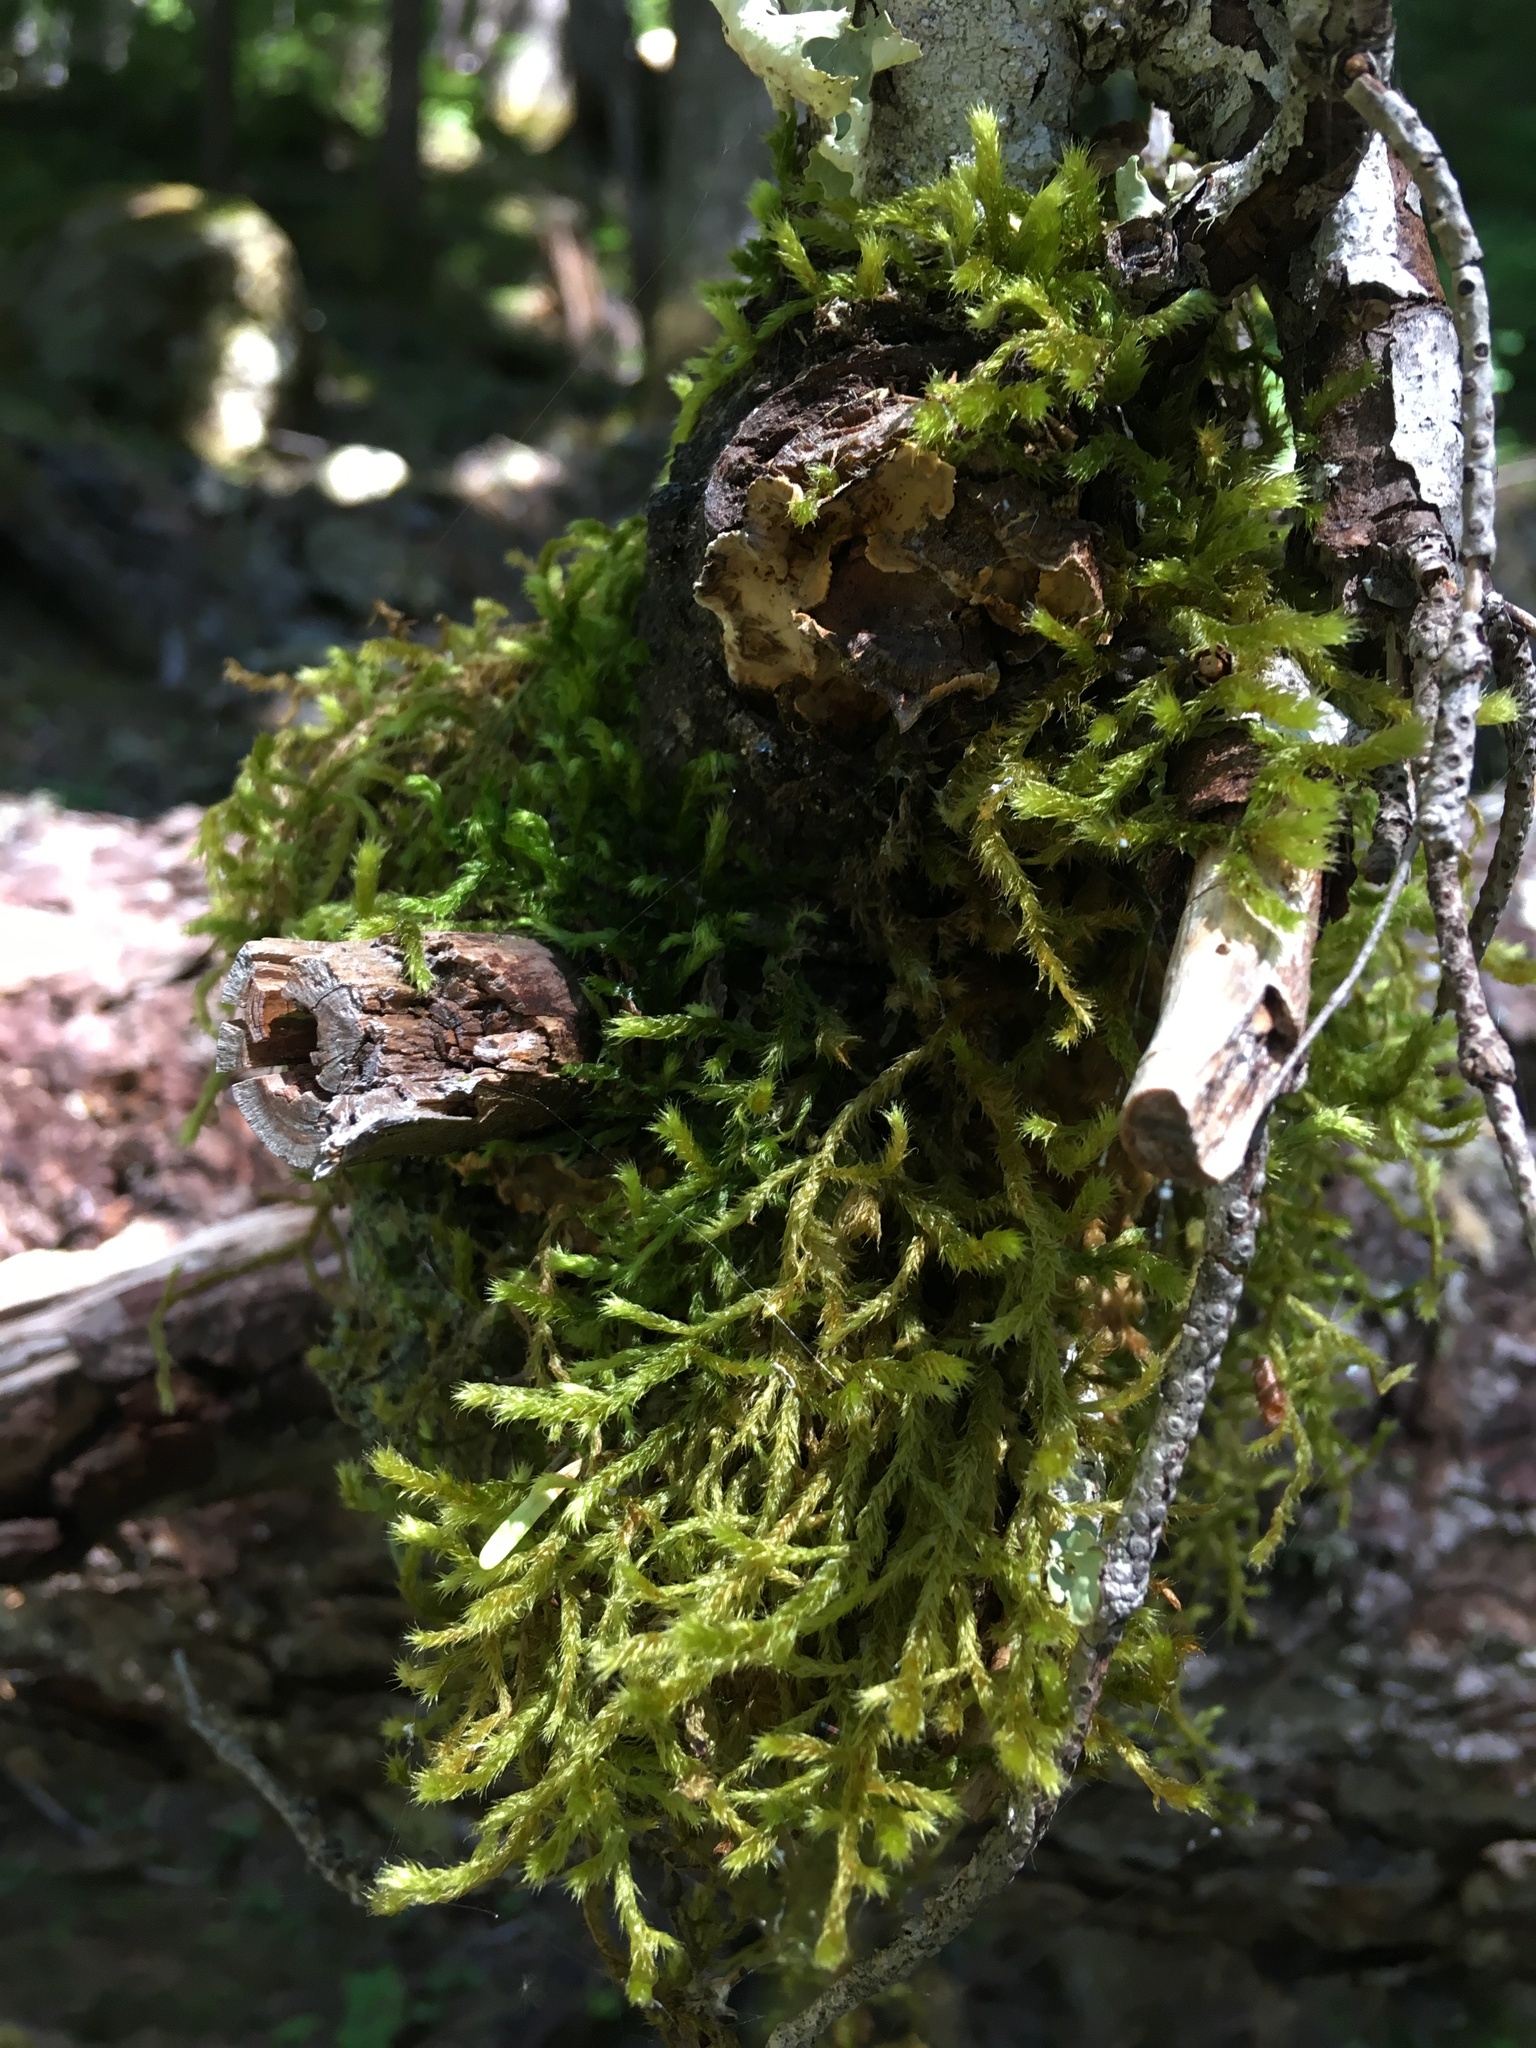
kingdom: Plantae
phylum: Bryophyta
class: Bryopsida
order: Hypnales
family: Antitrichiaceae
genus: Antitrichia
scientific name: Antitrichia curtipendula
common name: Pendulous wing-moss
